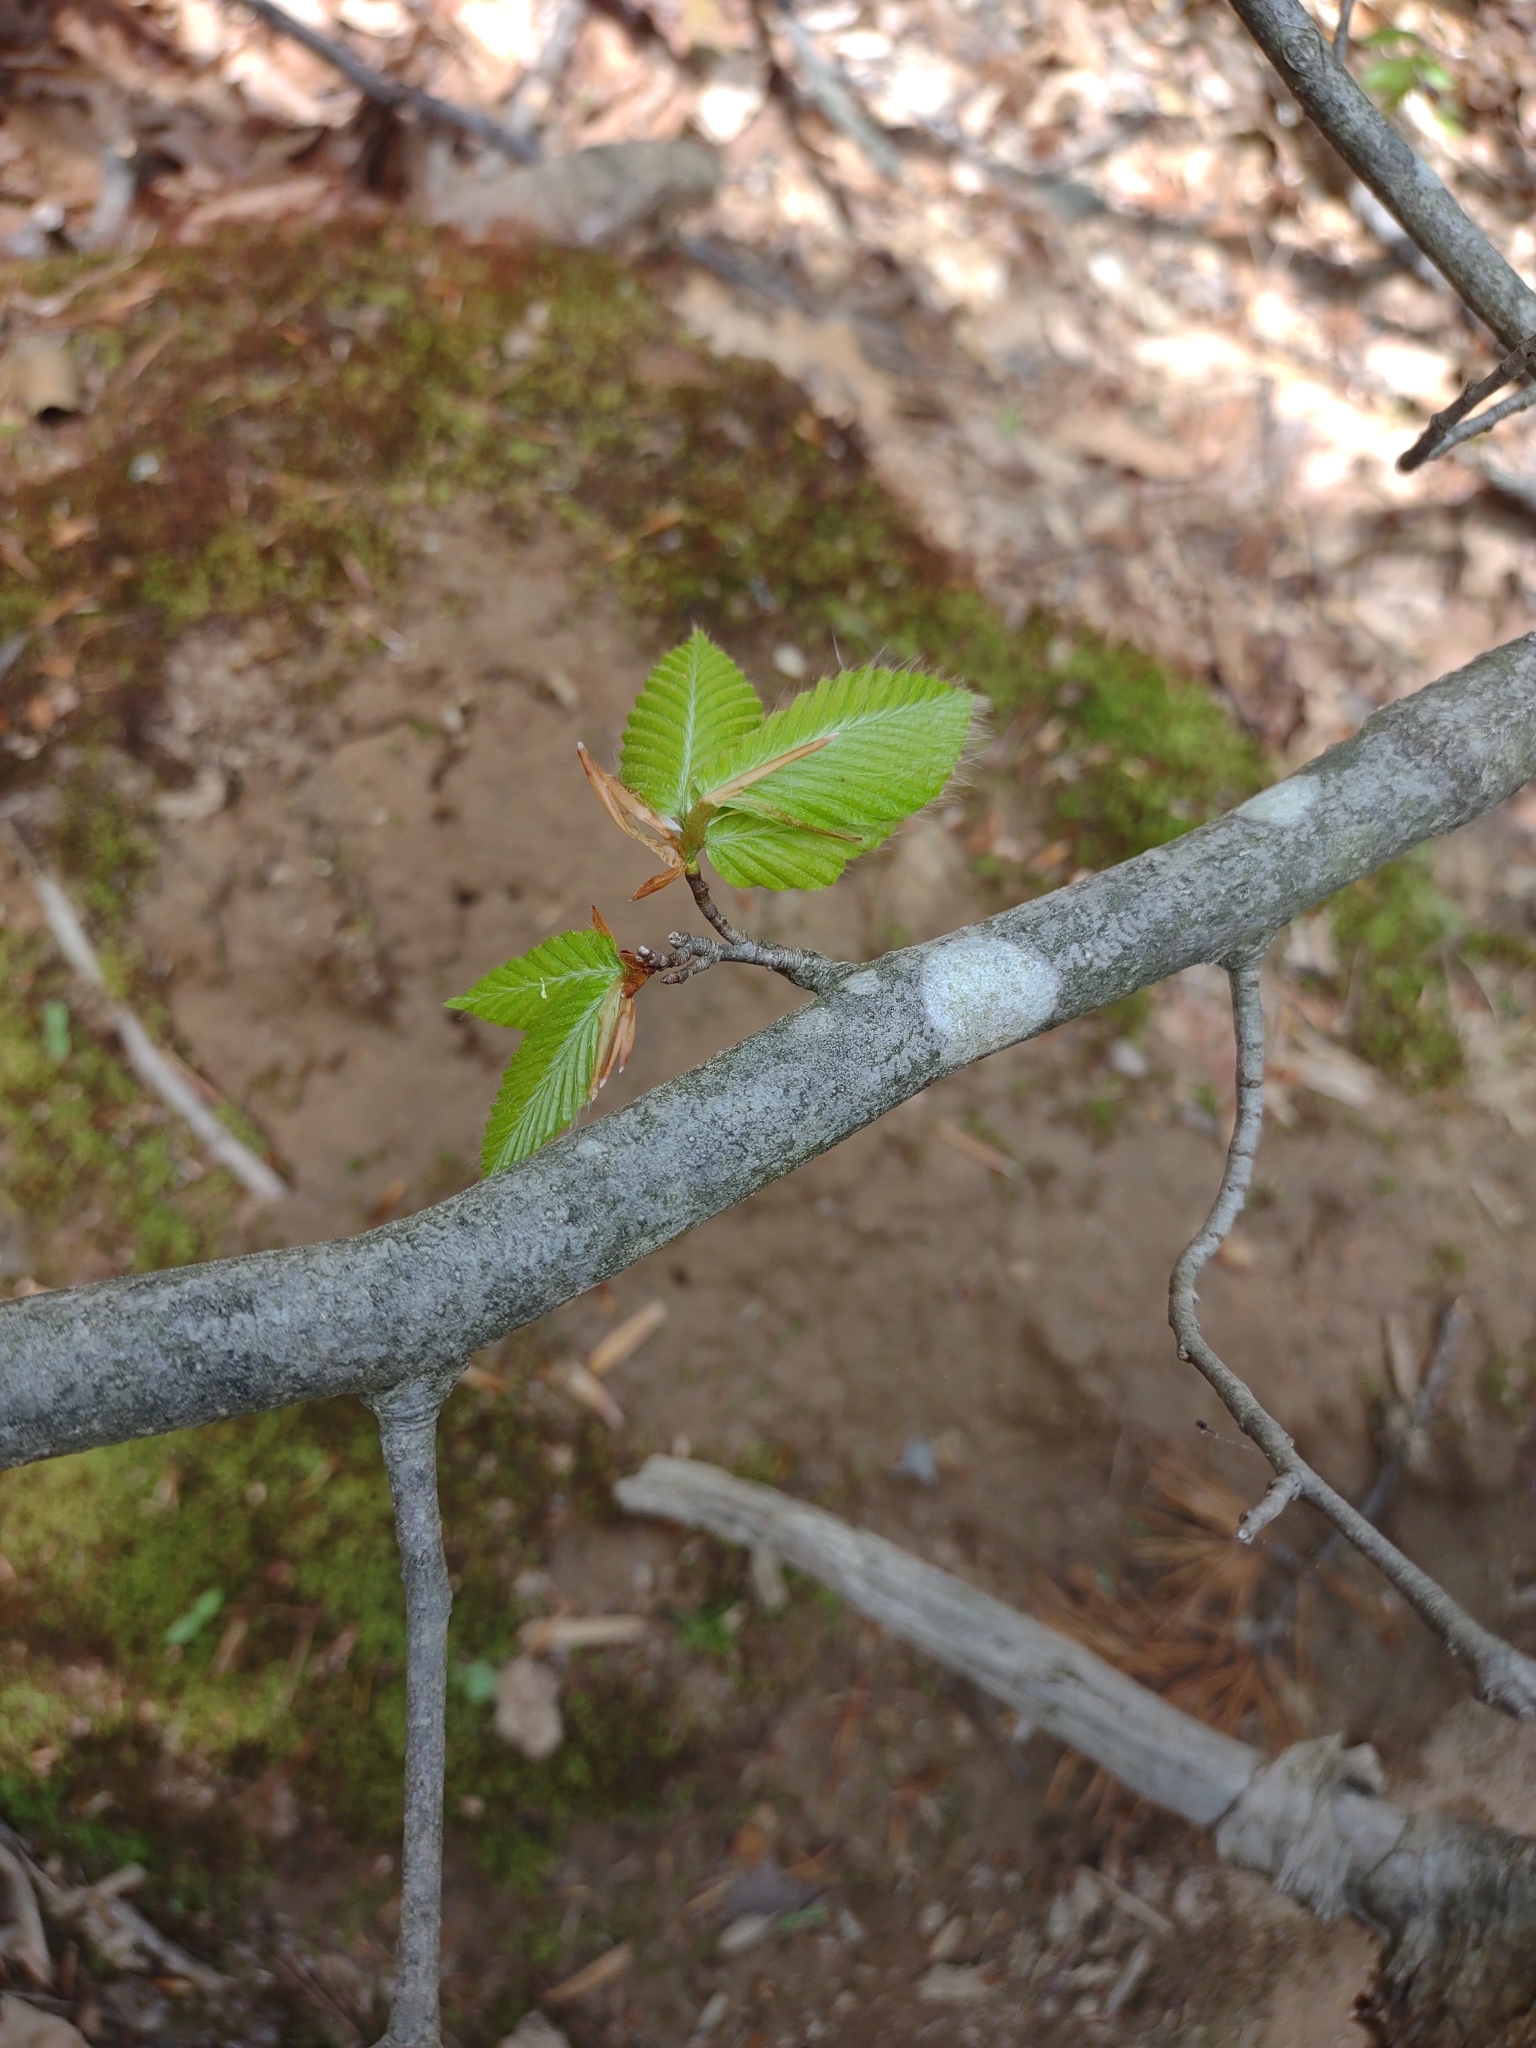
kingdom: Plantae
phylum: Tracheophyta
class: Magnoliopsida
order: Fagales
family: Fagaceae
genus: Fagus
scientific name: Fagus grandifolia
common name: American beech
